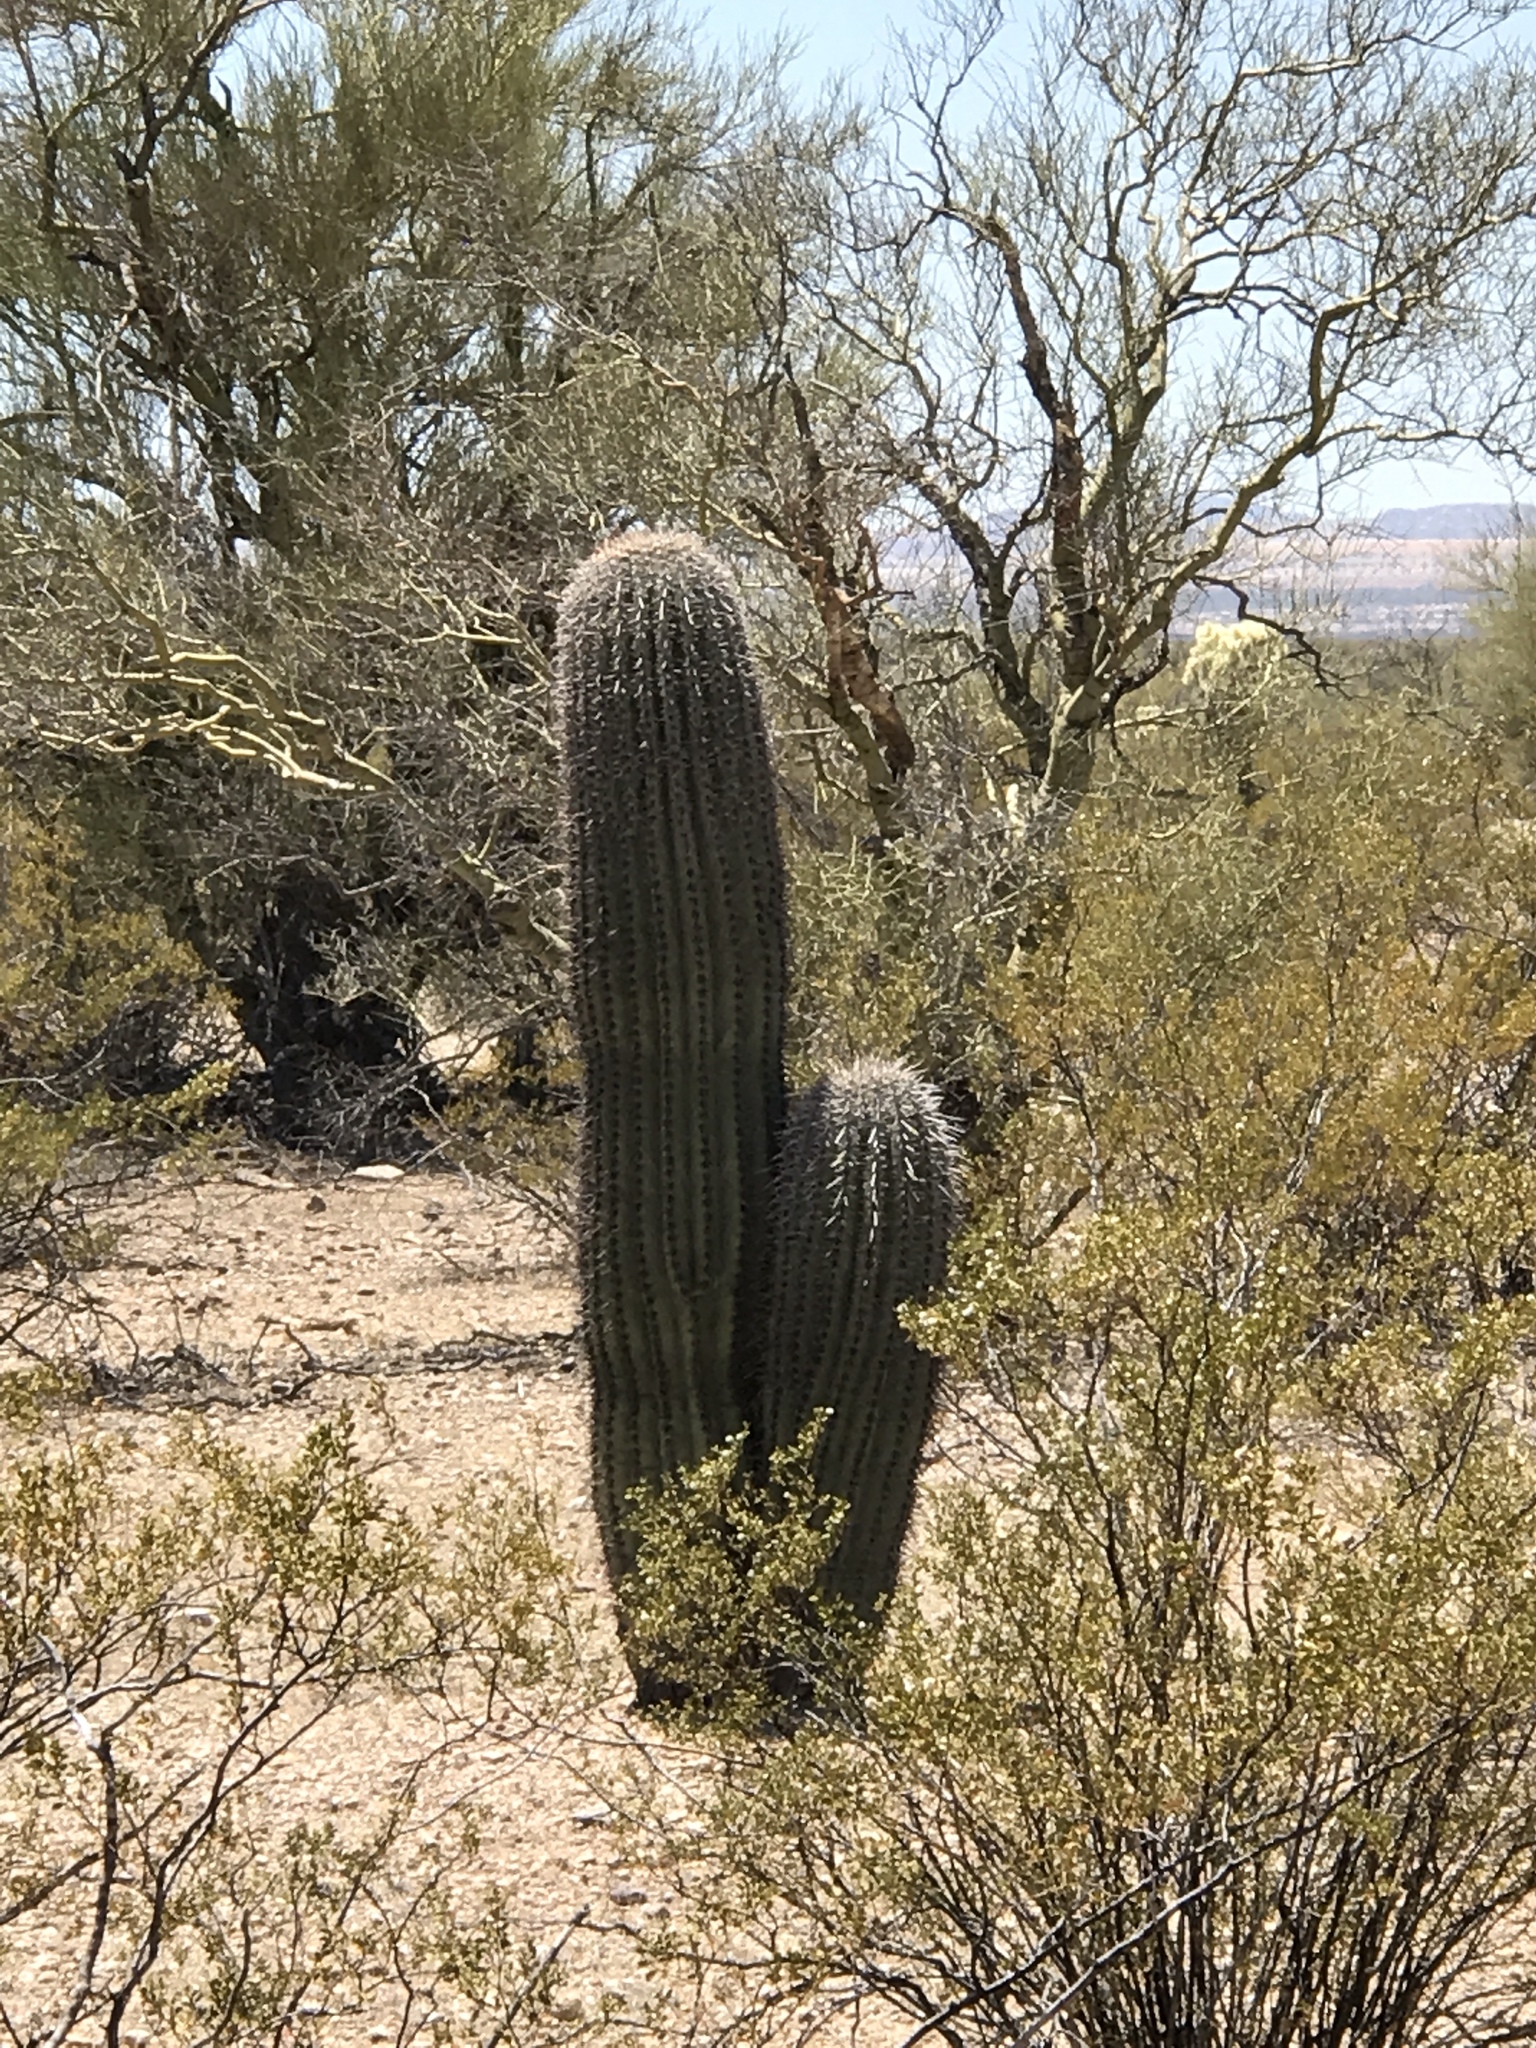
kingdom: Plantae
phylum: Tracheophyta
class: Magnoliopsida
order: Caryophyllales
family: Cactaceae
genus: Carnegiea
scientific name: Carnegiea gigantea
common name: Saguaro
